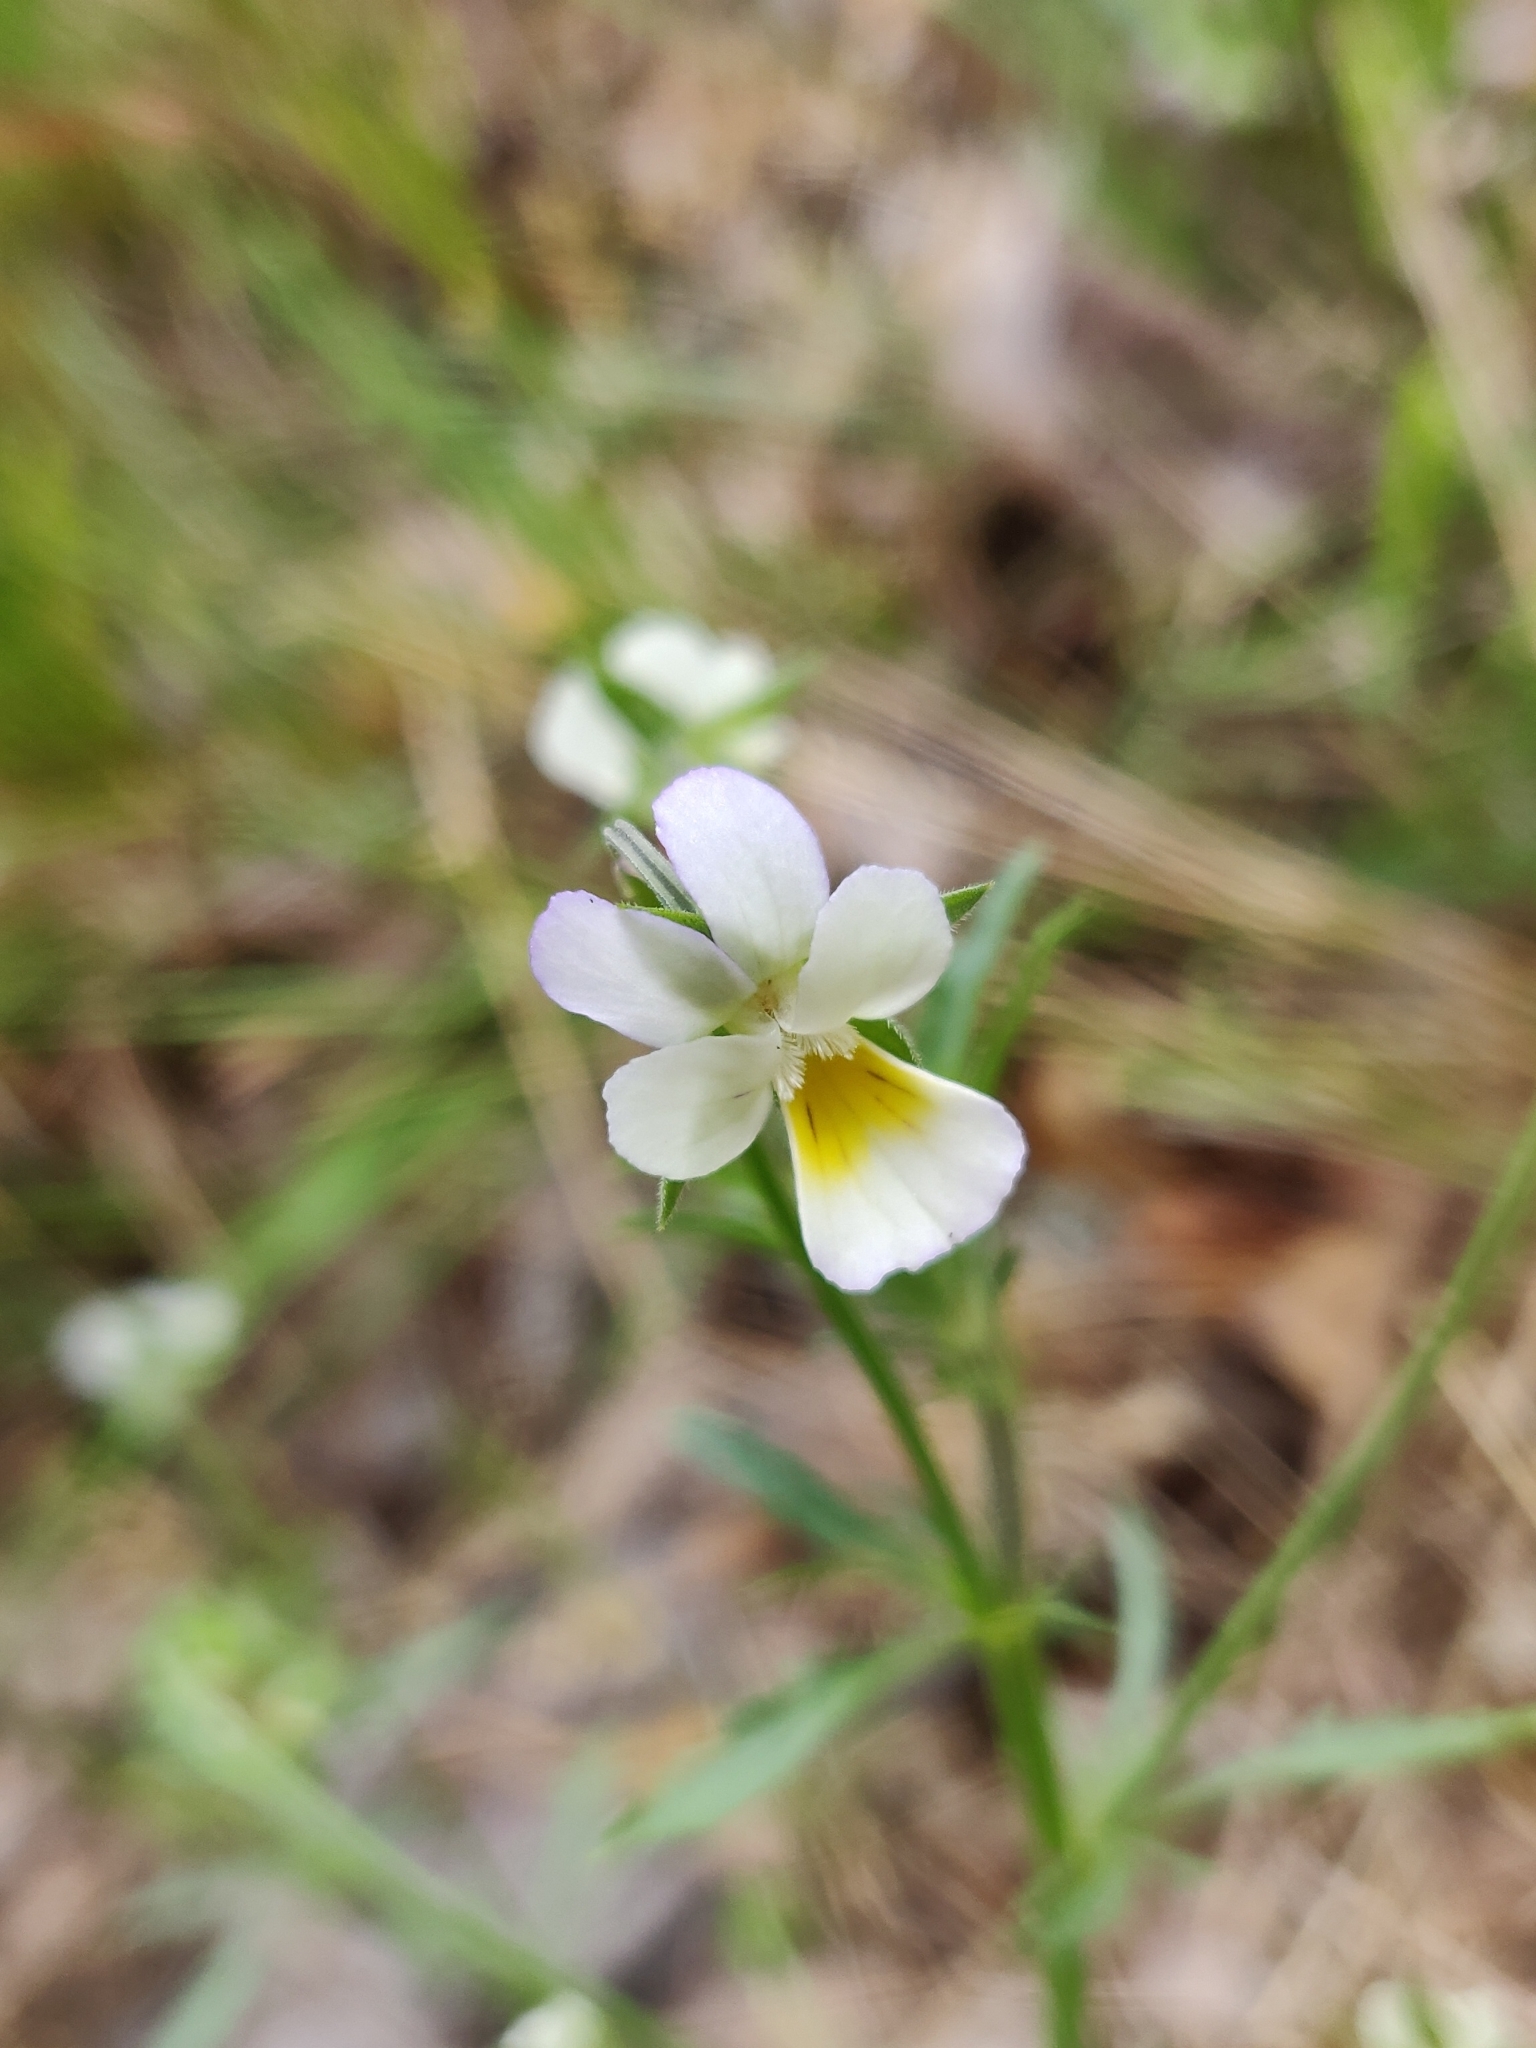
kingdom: Plantae
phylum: Tracheophyta
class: Magnoliopsida
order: Malpighiales
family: Violaceae
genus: Viola
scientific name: Viola arvensis
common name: Field pansy
